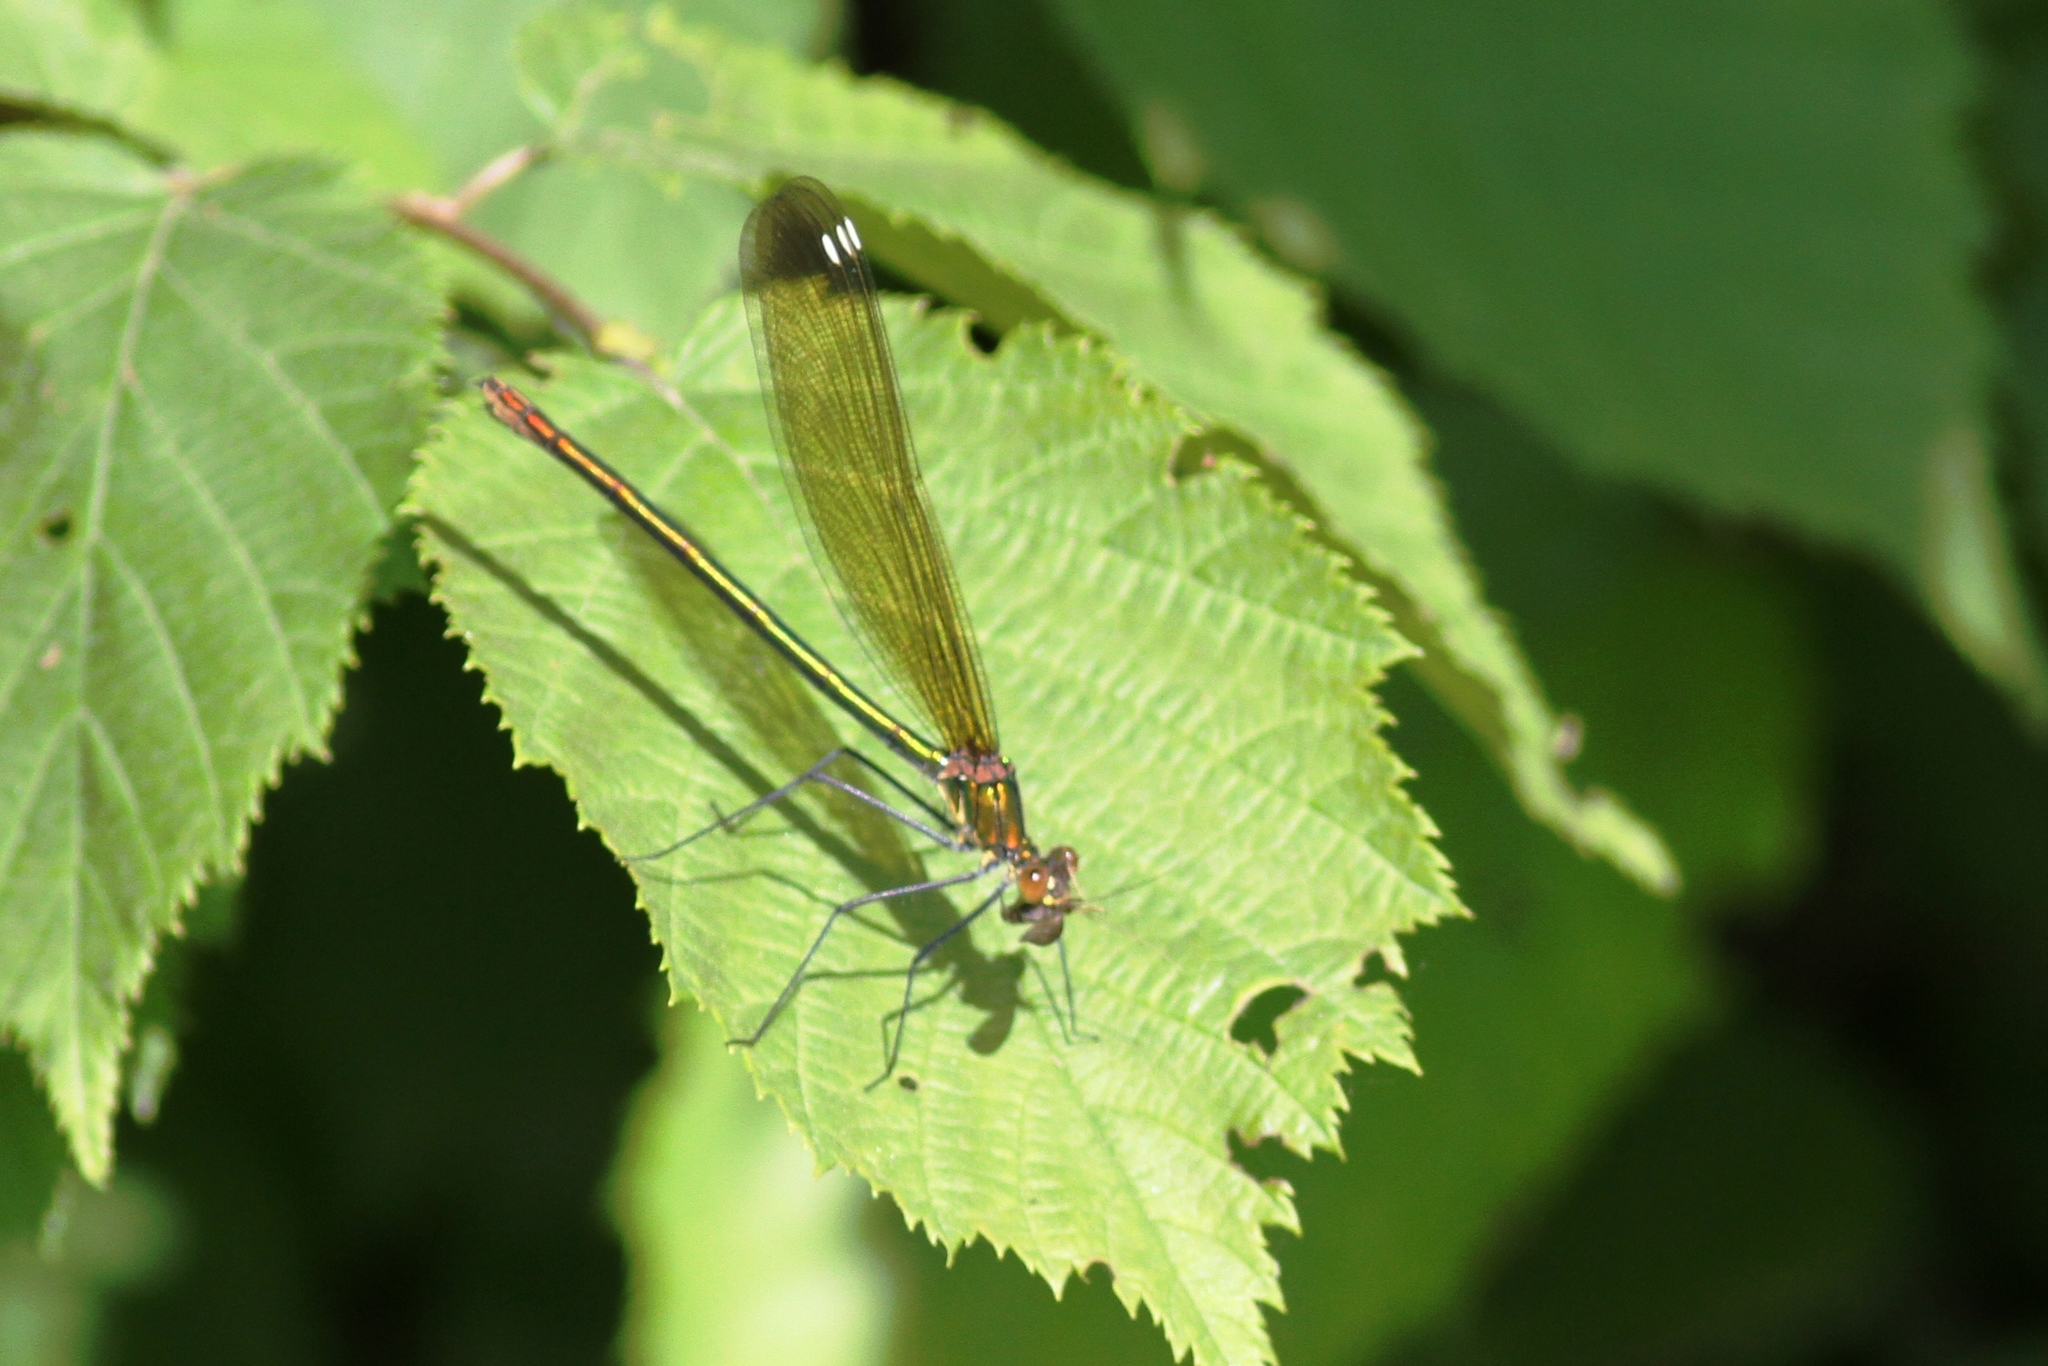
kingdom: Animalia
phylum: Arthropoda
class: Insecta
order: Odonata
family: Calopterygidae
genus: Calopteryx
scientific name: Calopteryx amata
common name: Superb jewelwing
